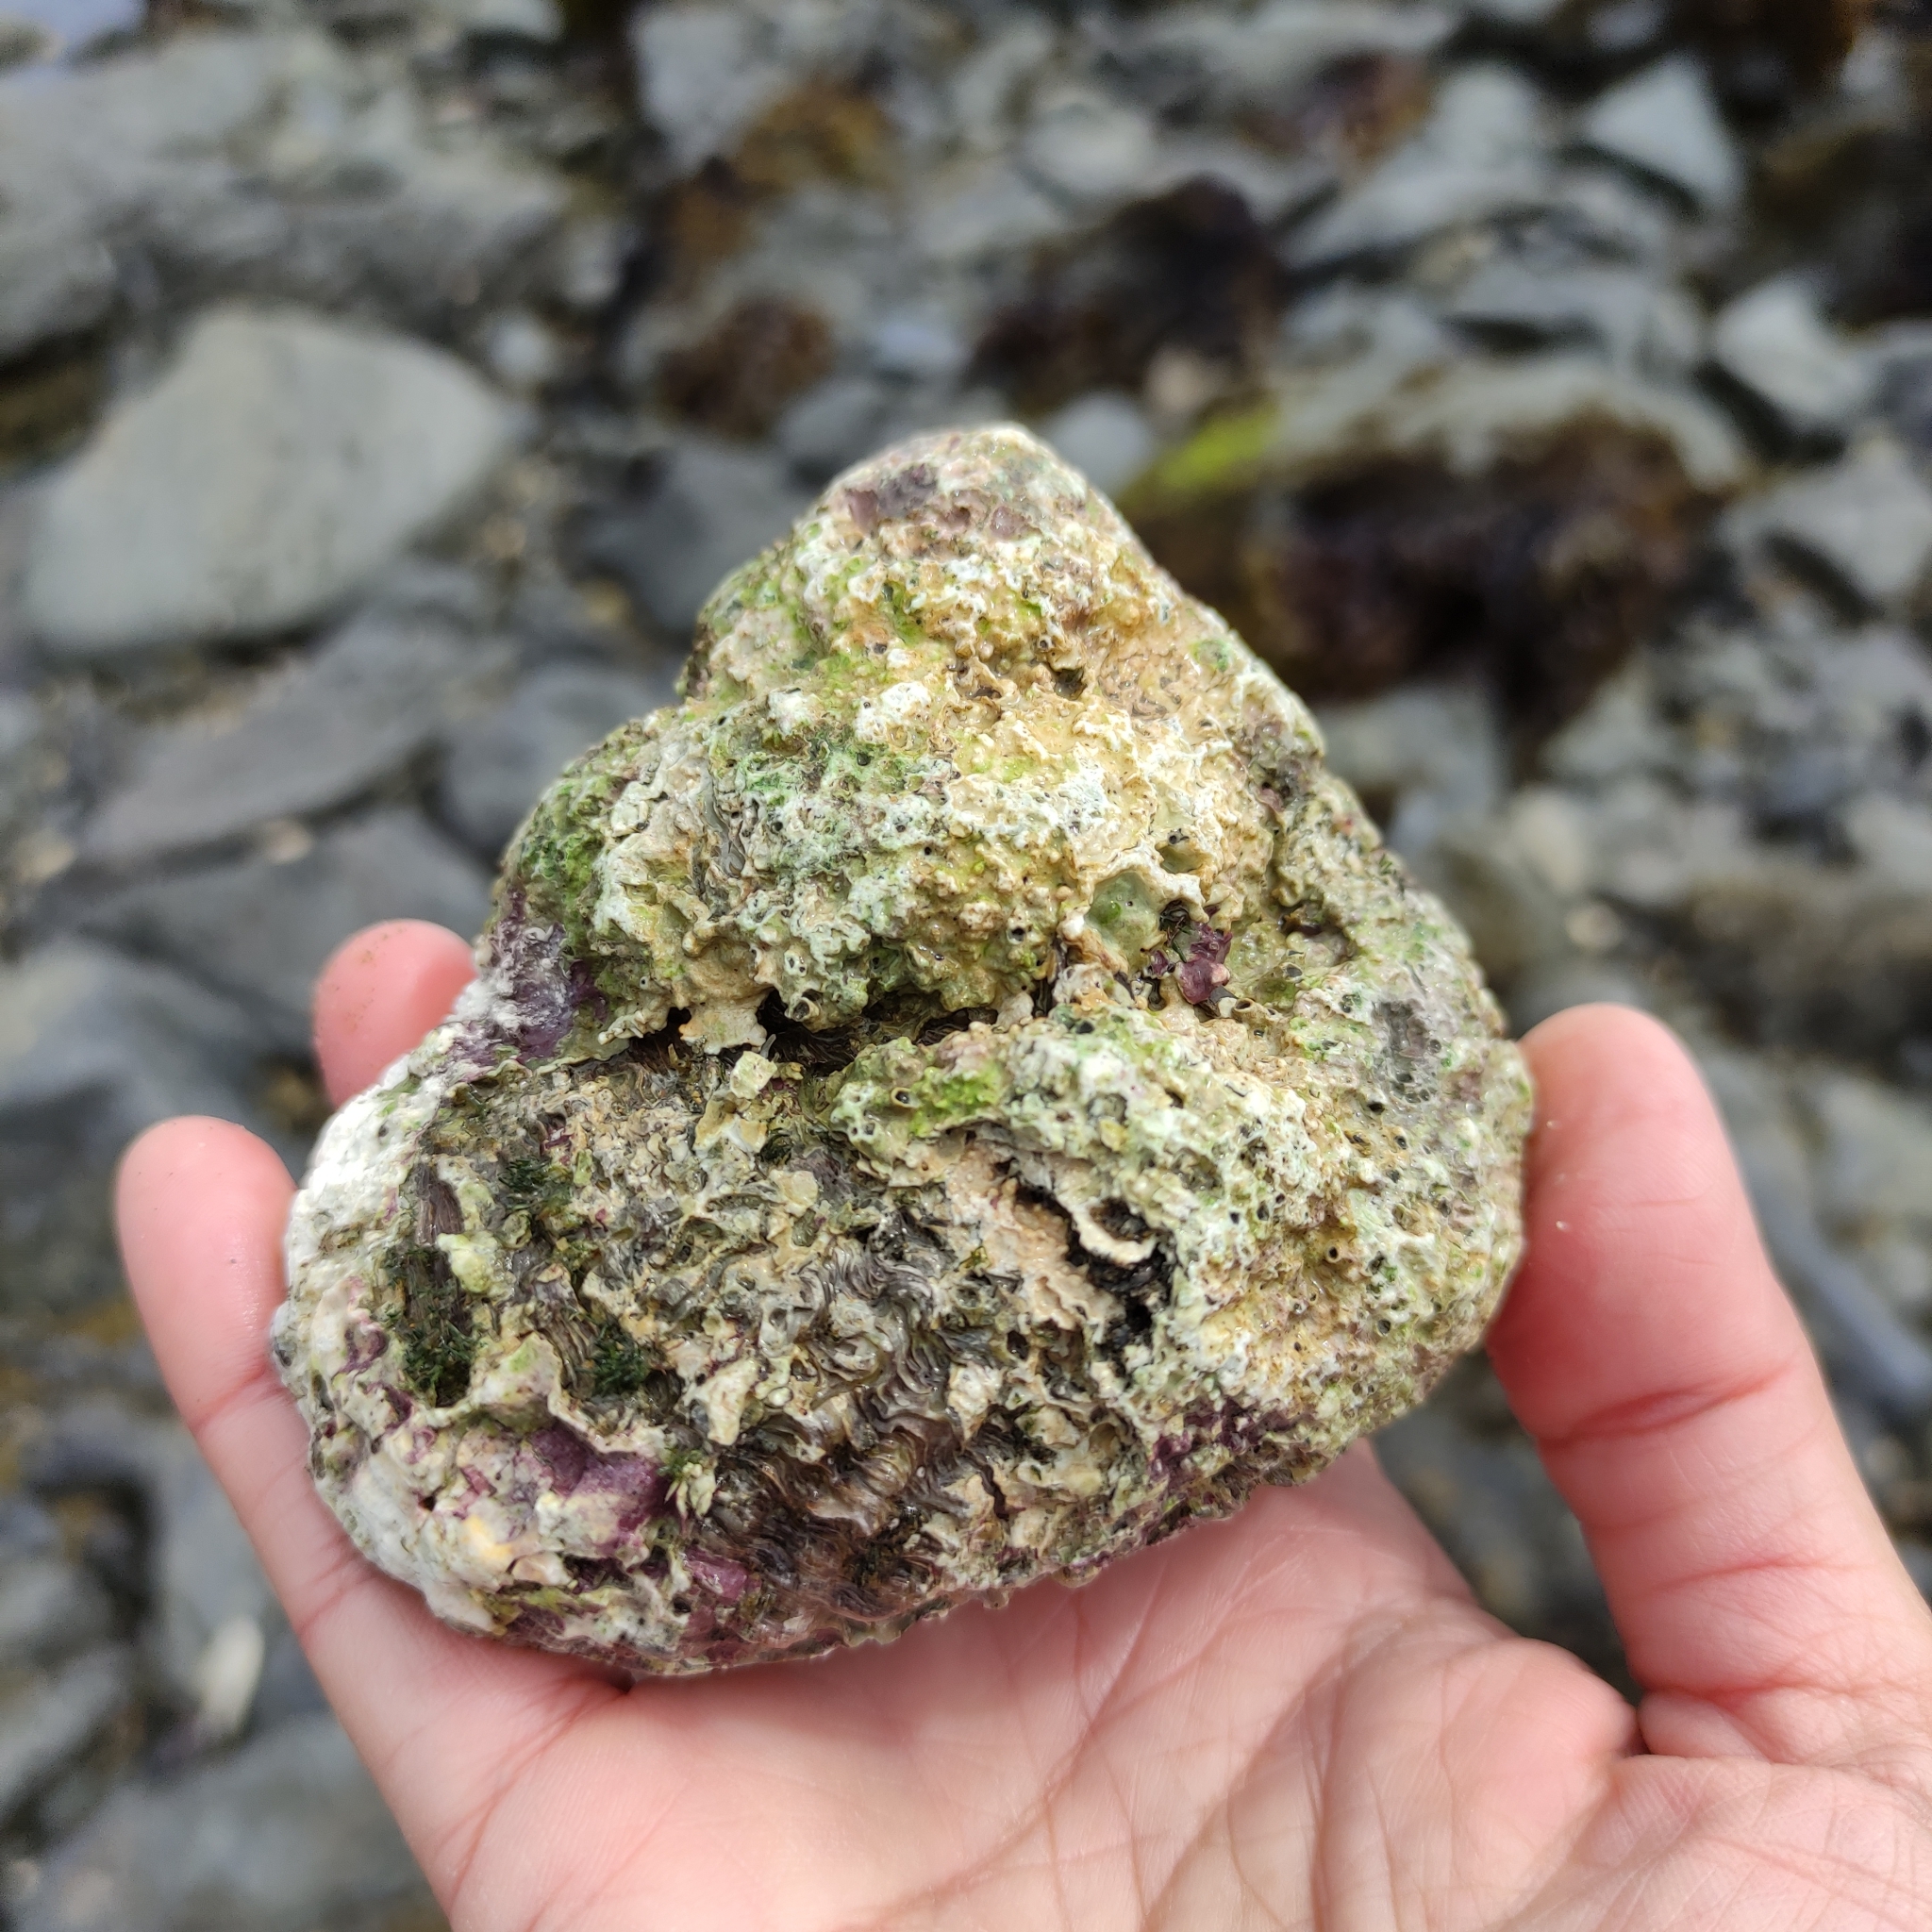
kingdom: Animalia
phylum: Mollusca
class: Gastropoda
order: Trochida
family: Turbinidae
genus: Cookia
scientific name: Cookia sulcata
